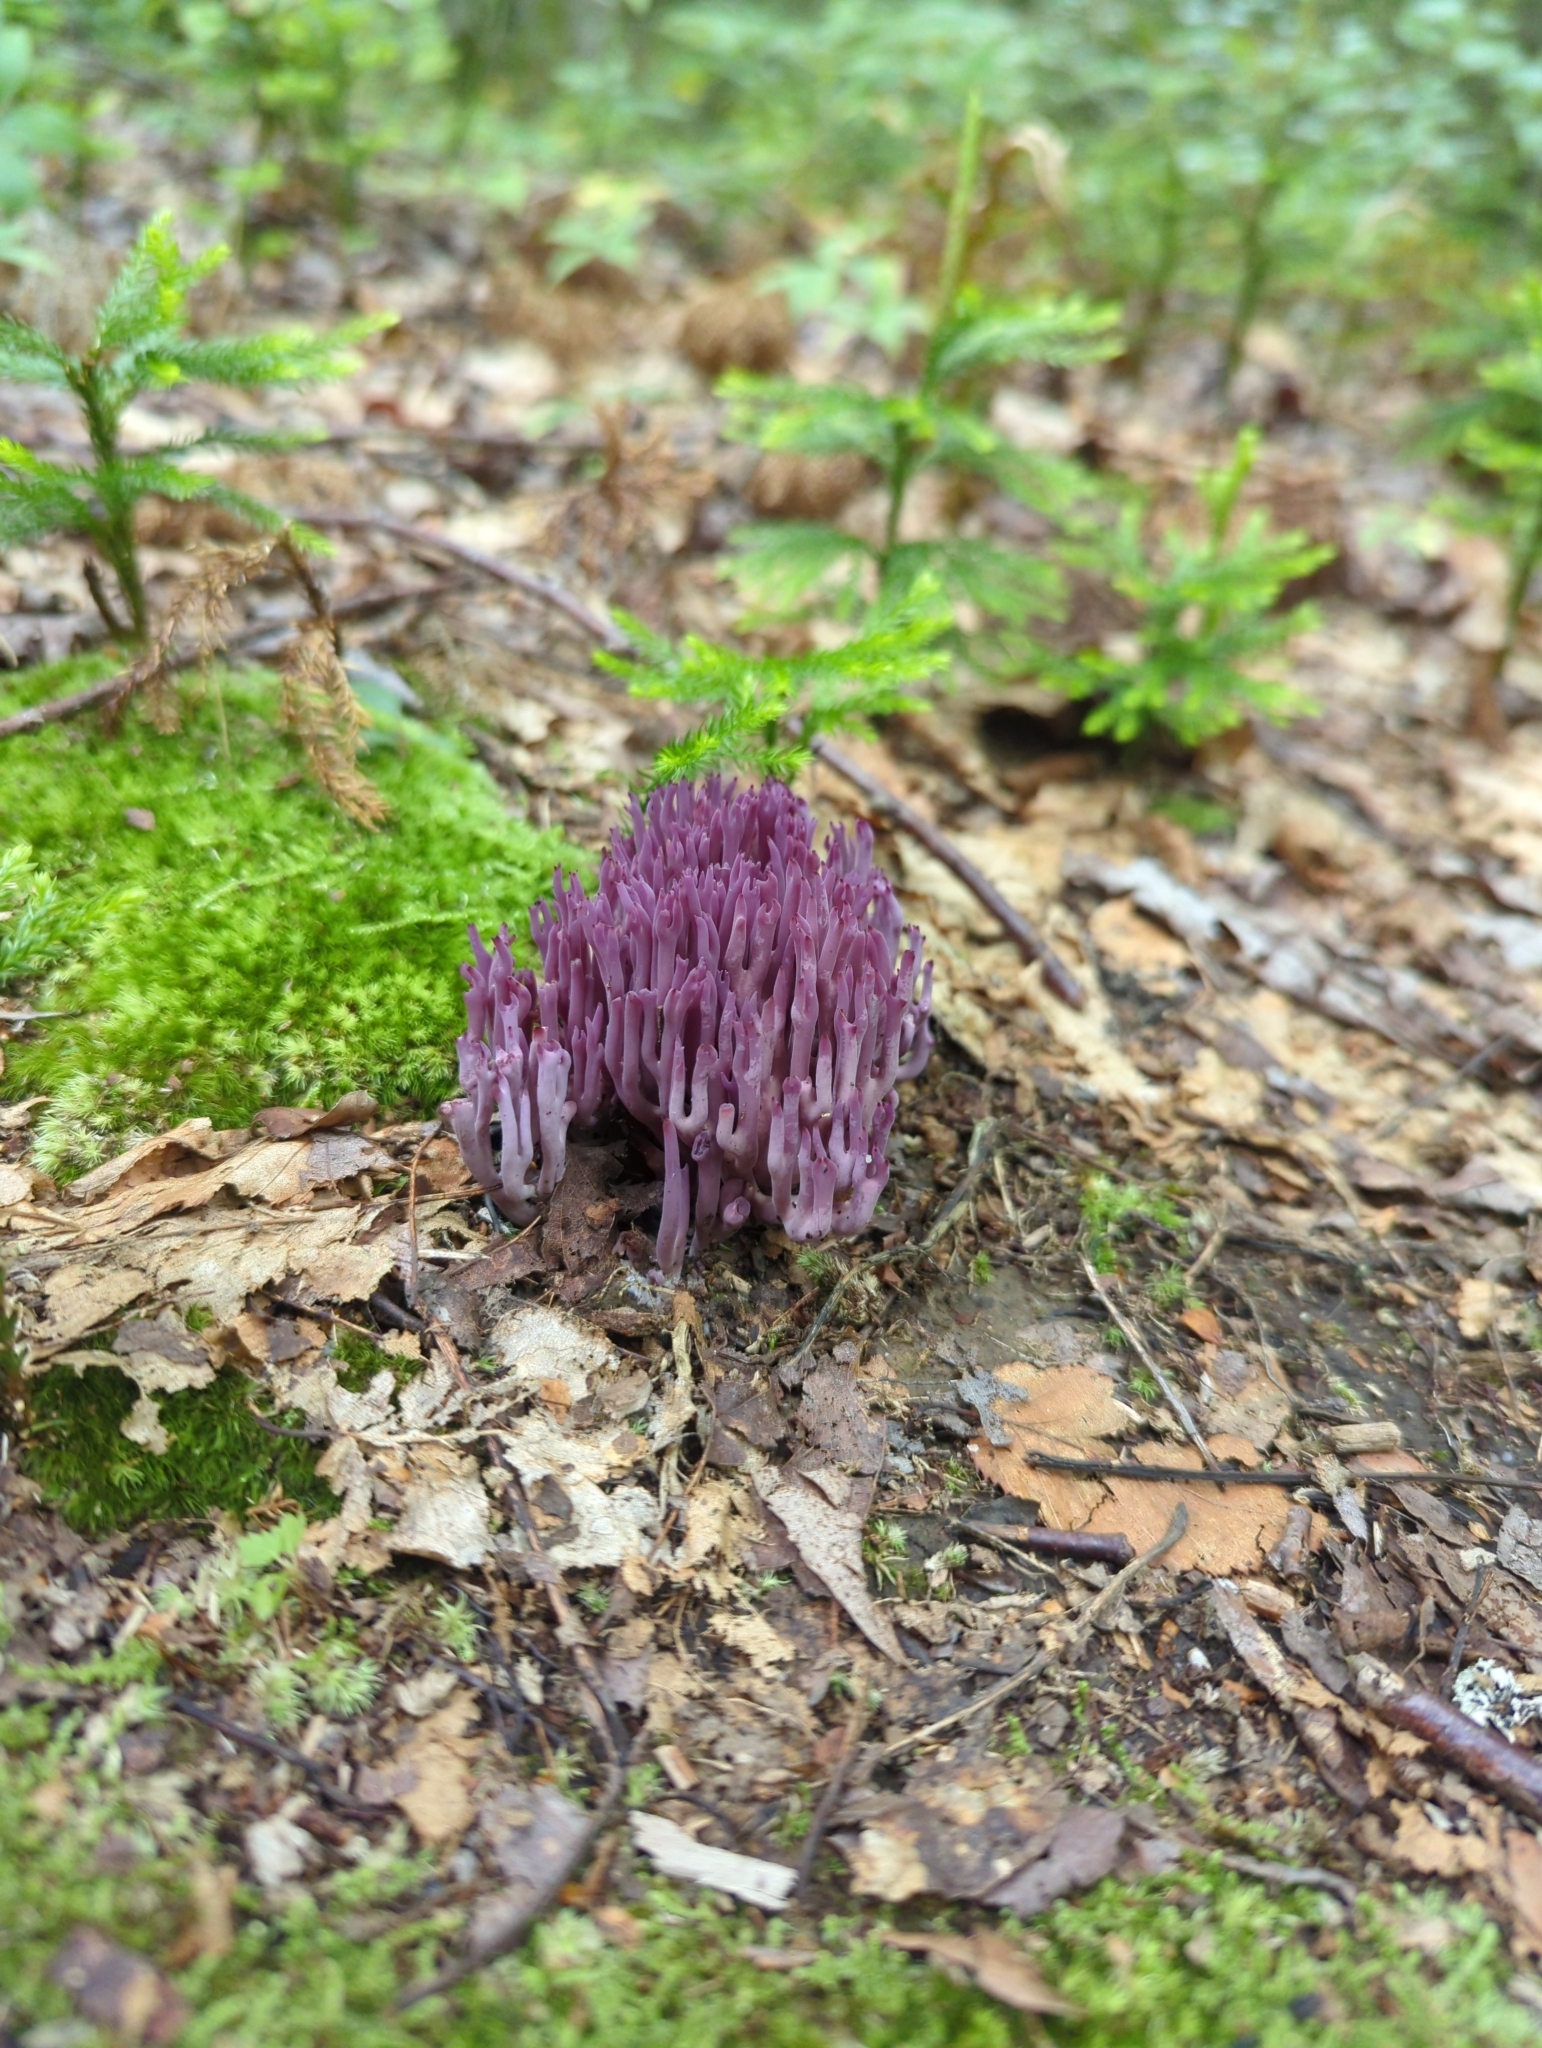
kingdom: Fungi
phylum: Basidiomycota
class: Agaricomycetes
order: Agaricales
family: Clavariaceae
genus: Clavaria
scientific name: Clavaria zollingeri
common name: Violet coral
